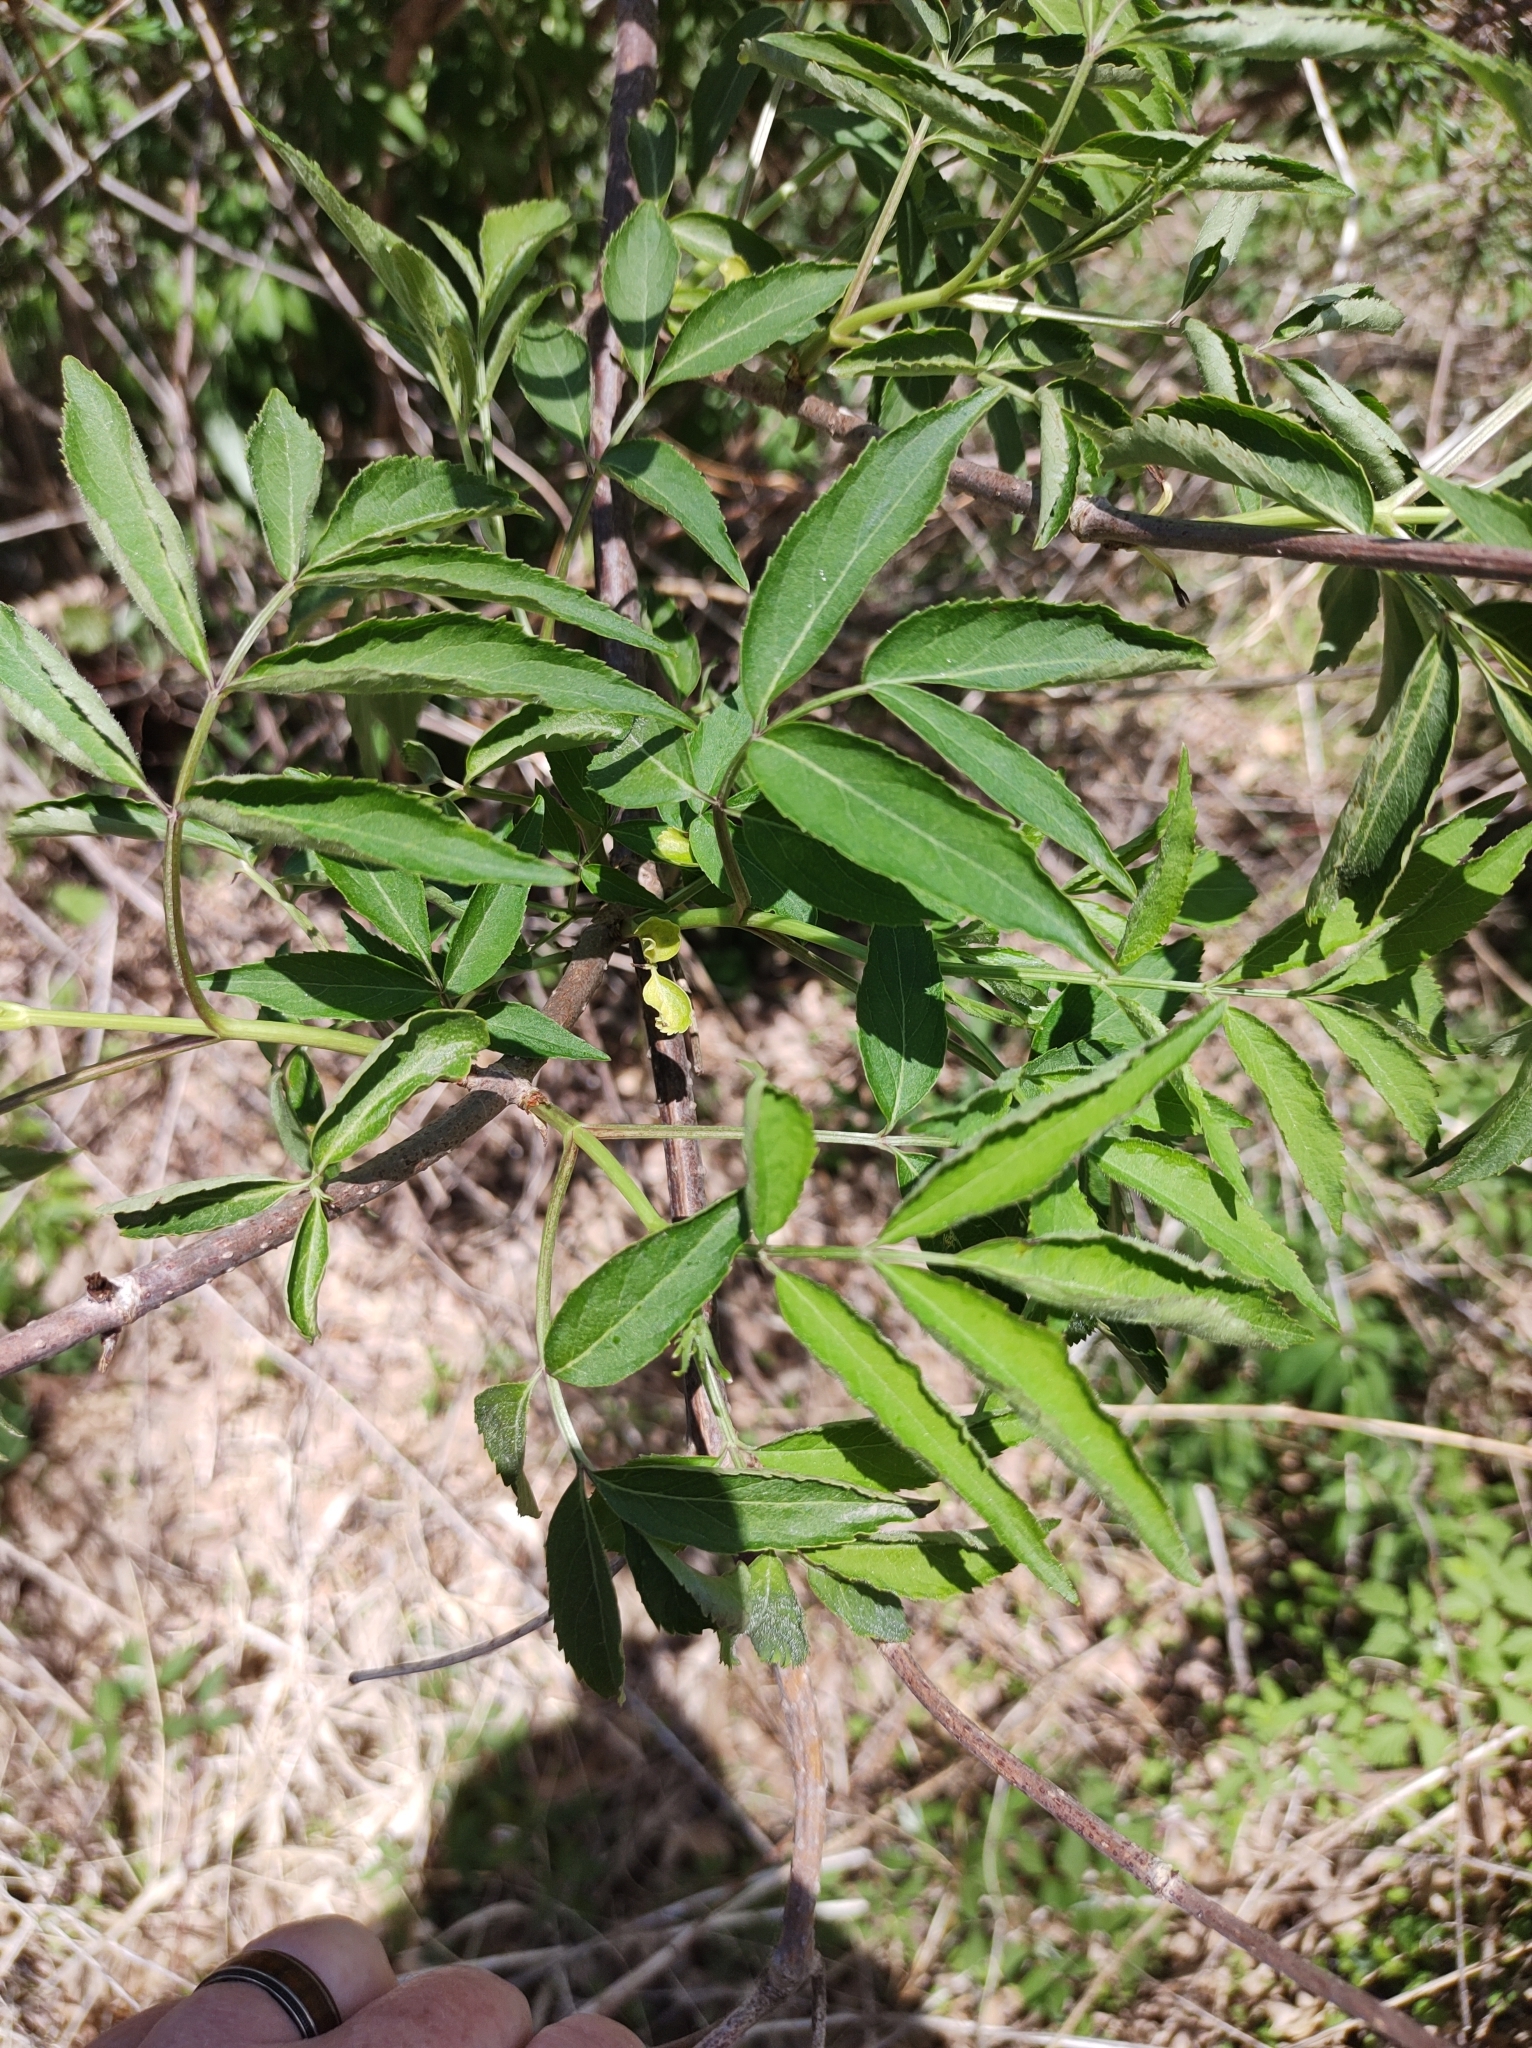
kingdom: Plantae
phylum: Tracheophyta
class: Magnoliopsida
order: Dipsacales
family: Viburnaceae
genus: Sambucus
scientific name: Sambucus canadensis
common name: American elder
